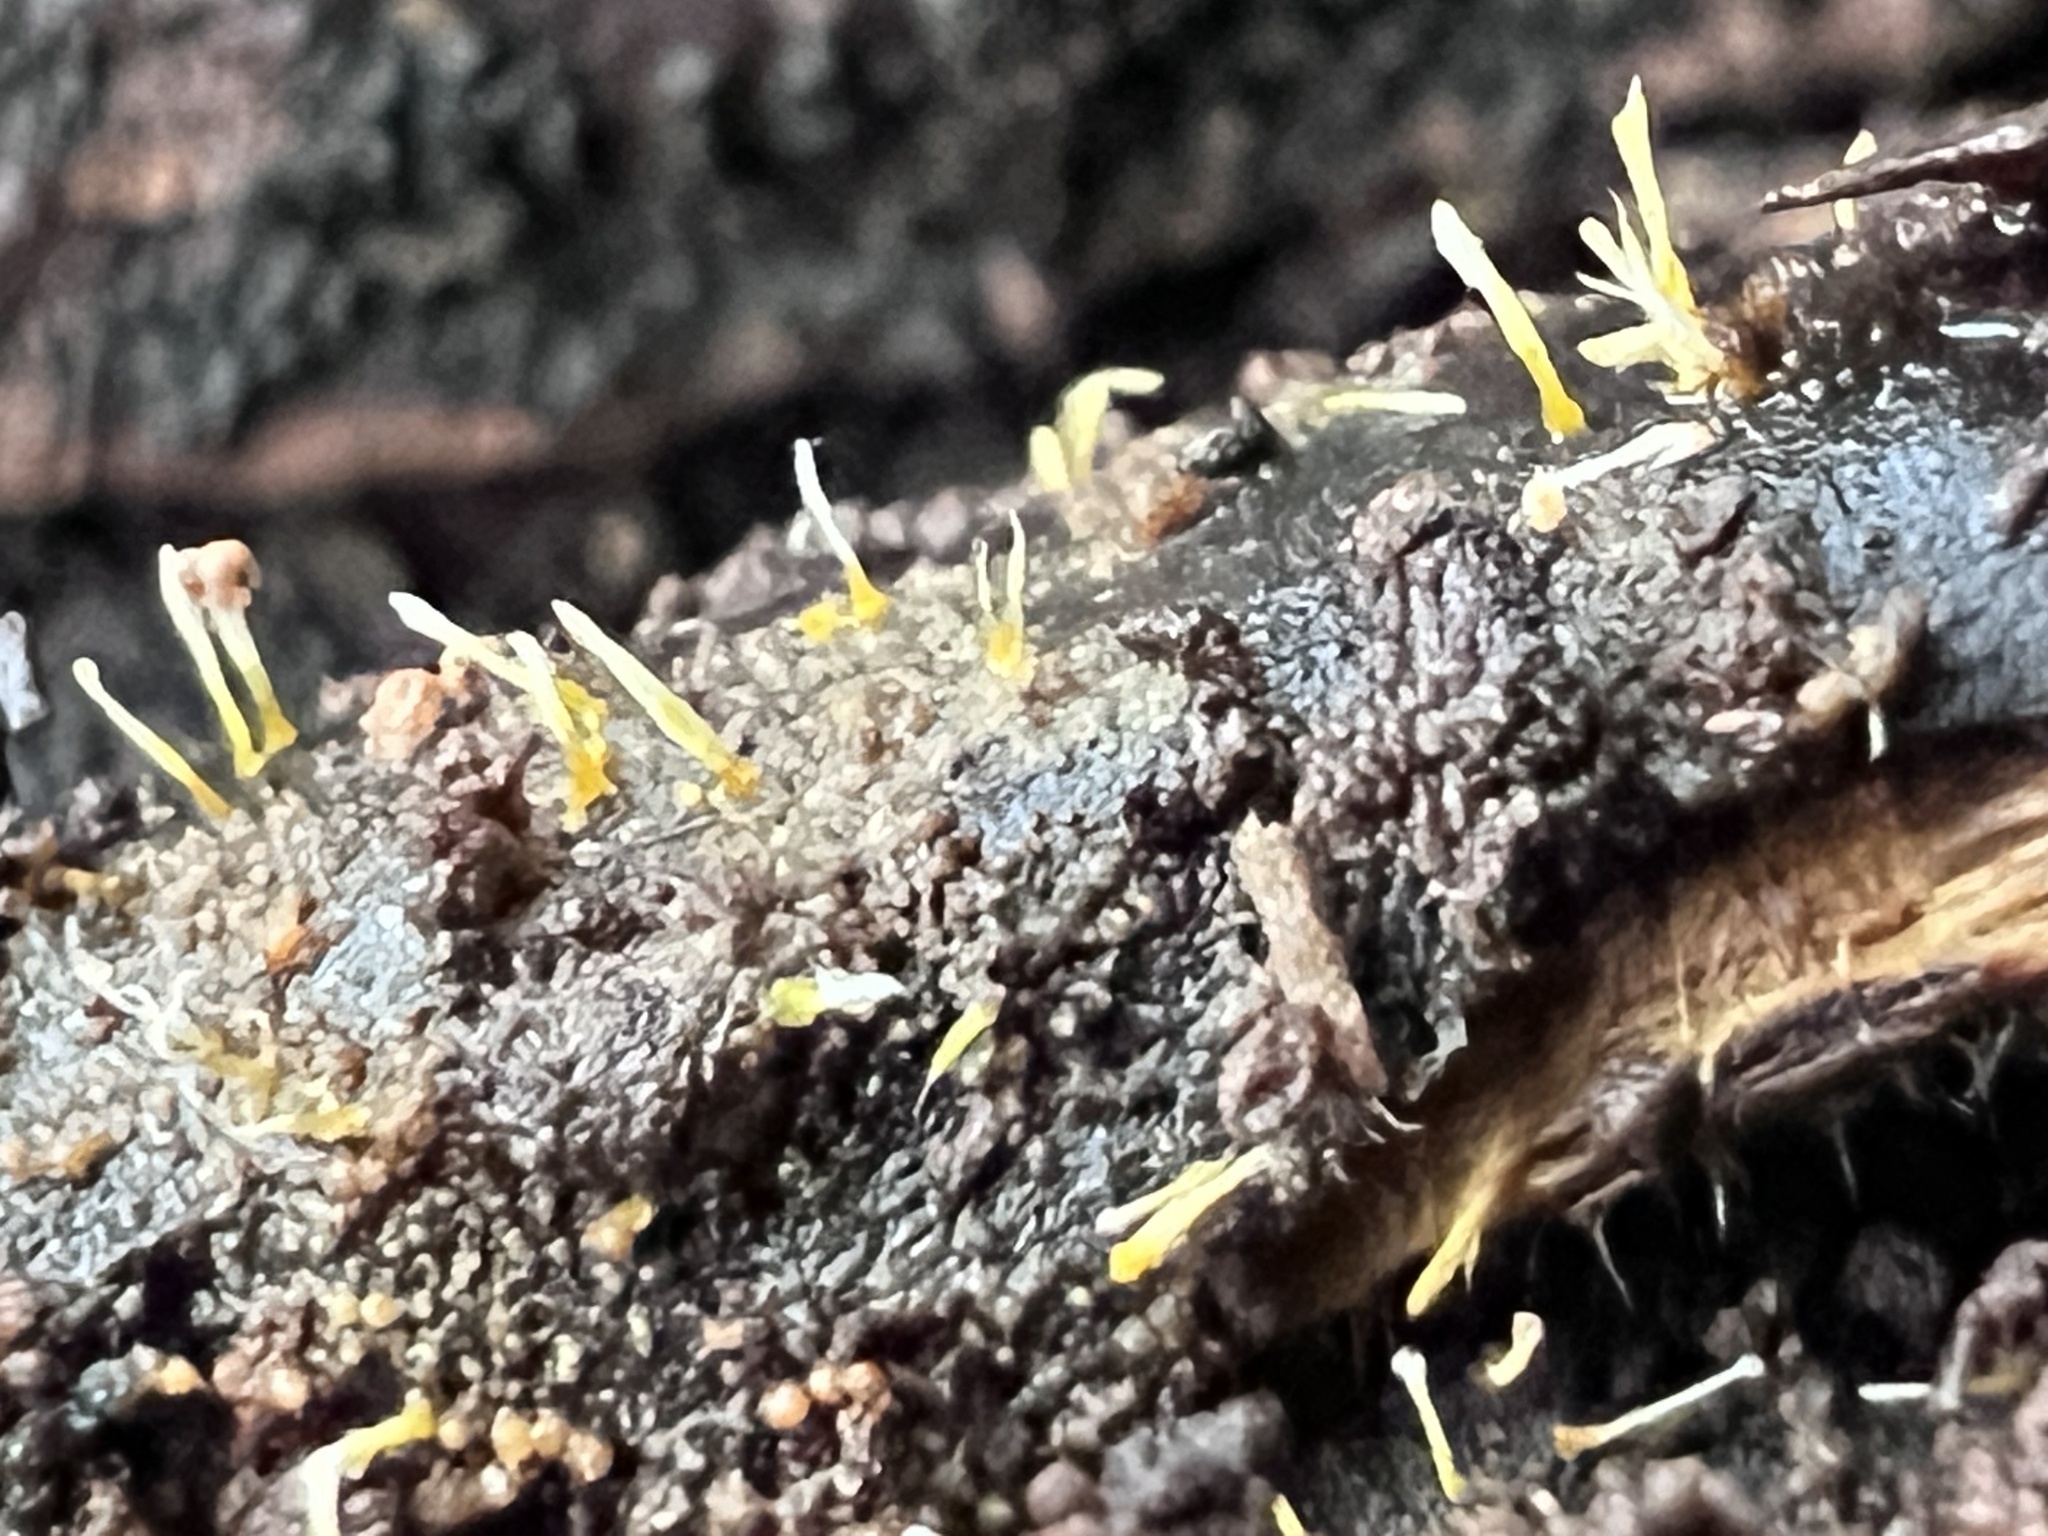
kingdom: Fungi
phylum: Ascomycota
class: Sordariomycetes
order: Hypocreales
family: Hypocreaceae
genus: Sphaerostilbella
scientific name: Sphaerostilbella aurifila
